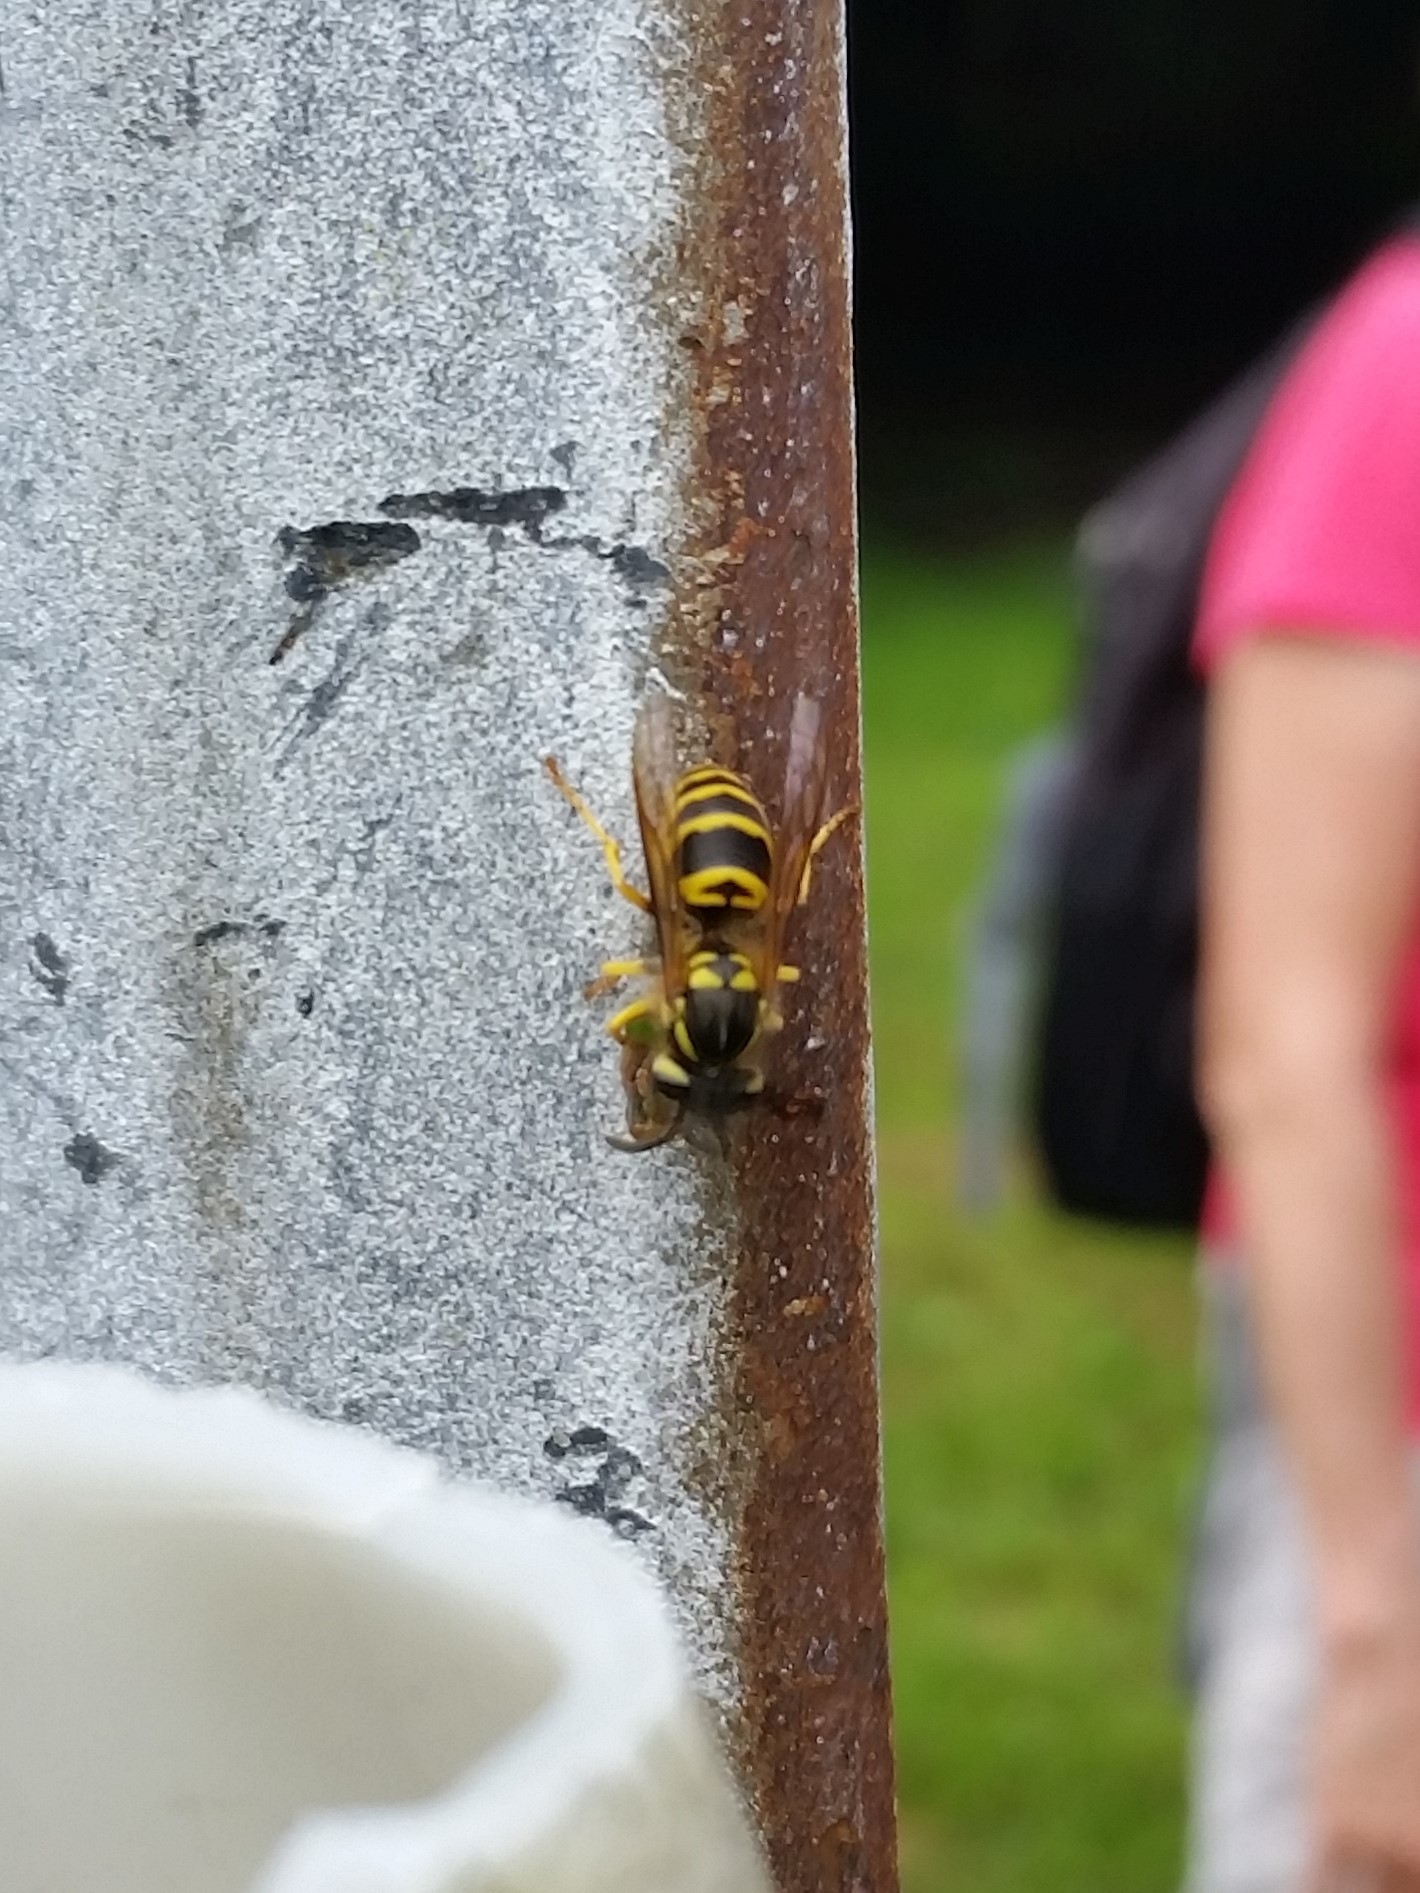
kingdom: Animalia
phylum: Arthropoda
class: Insecta
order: Hymenoptera
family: Vespidae
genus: Vespula
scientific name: Vespula maculifrons
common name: Eastern yellowjacket
